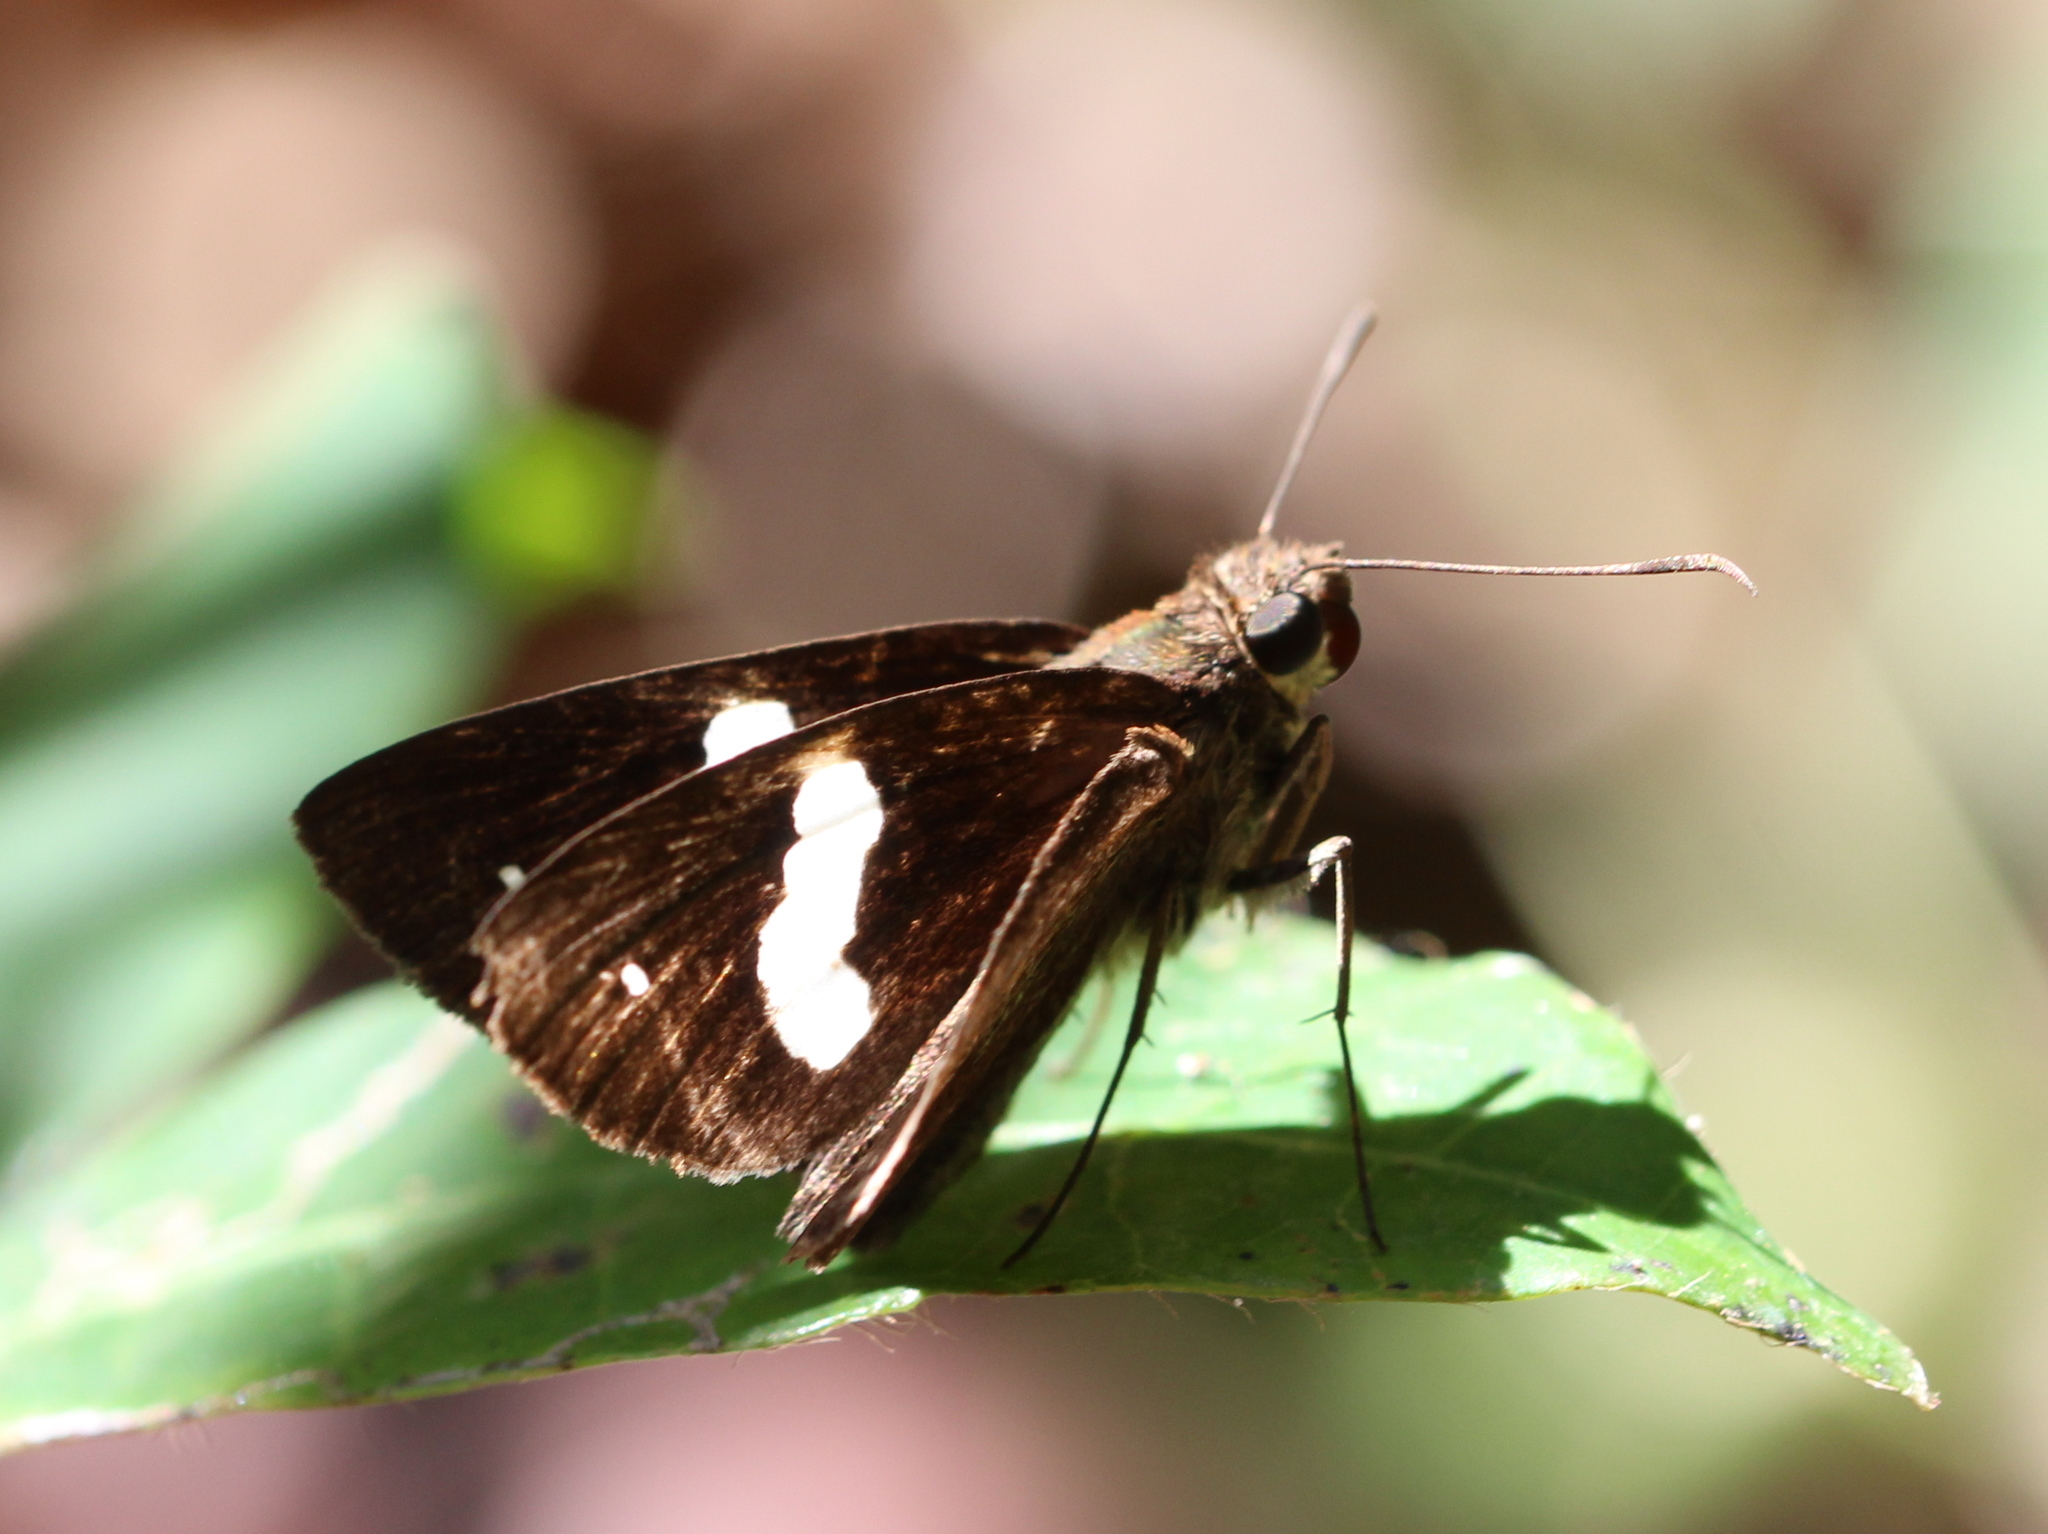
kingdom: Animalia
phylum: Arthropoda
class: Insecta
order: Lepidoptera
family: Hesperiidae
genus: Notocrypta
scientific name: Notocrypta paralysos
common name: Common banded demon
